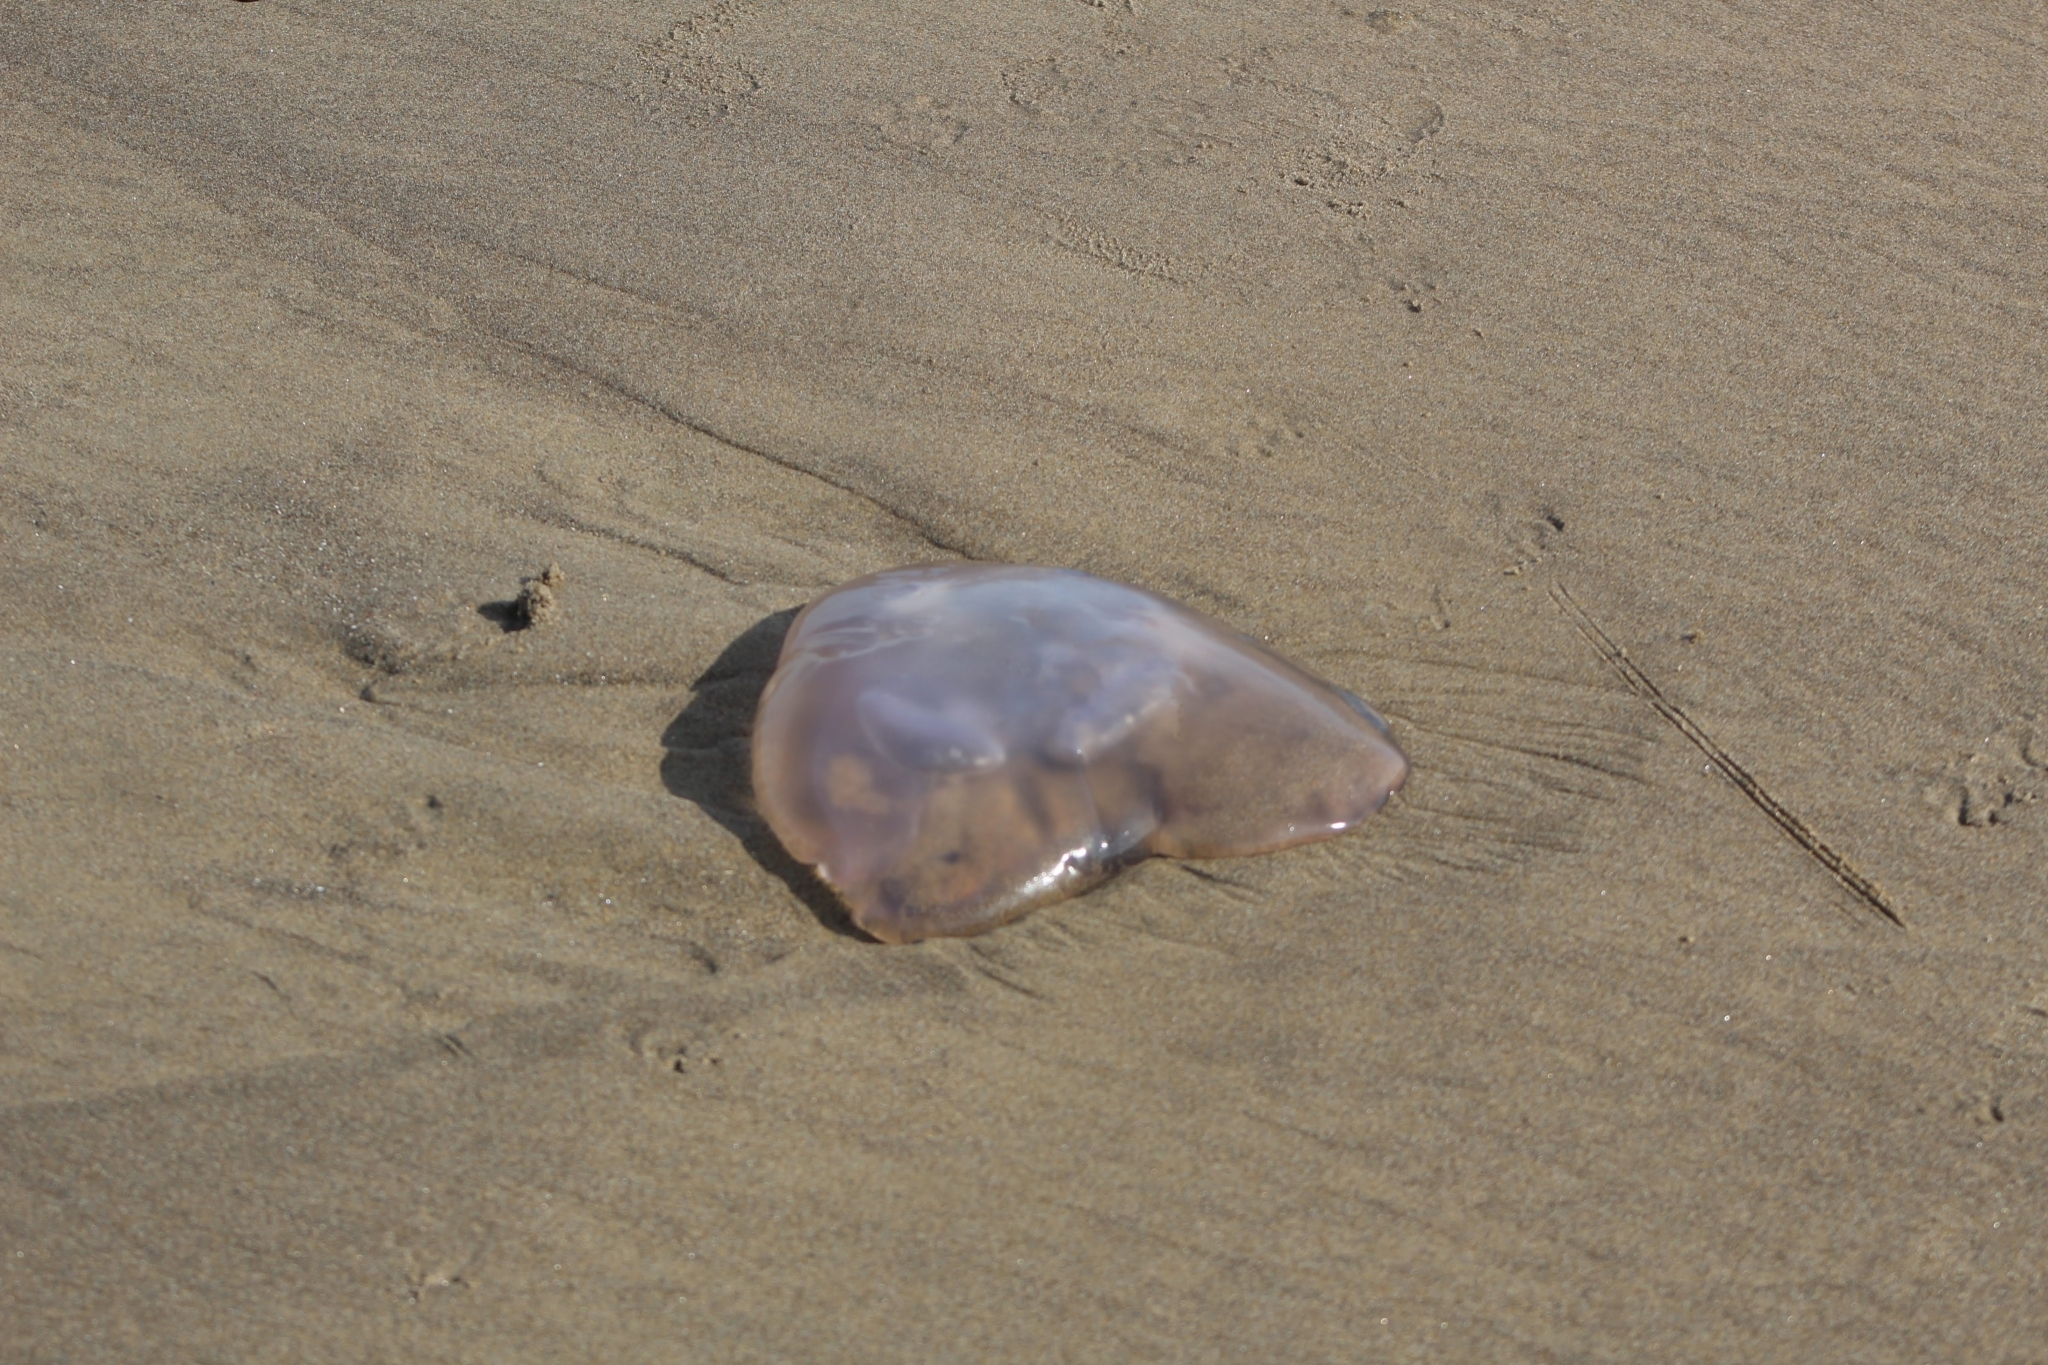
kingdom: Animalia
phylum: Cnidaria
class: Scyphozoa
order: Semaeostomeae
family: Ulmaridae
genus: Aurelia
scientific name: Aurelia labiata
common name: Pacific moon jelly
